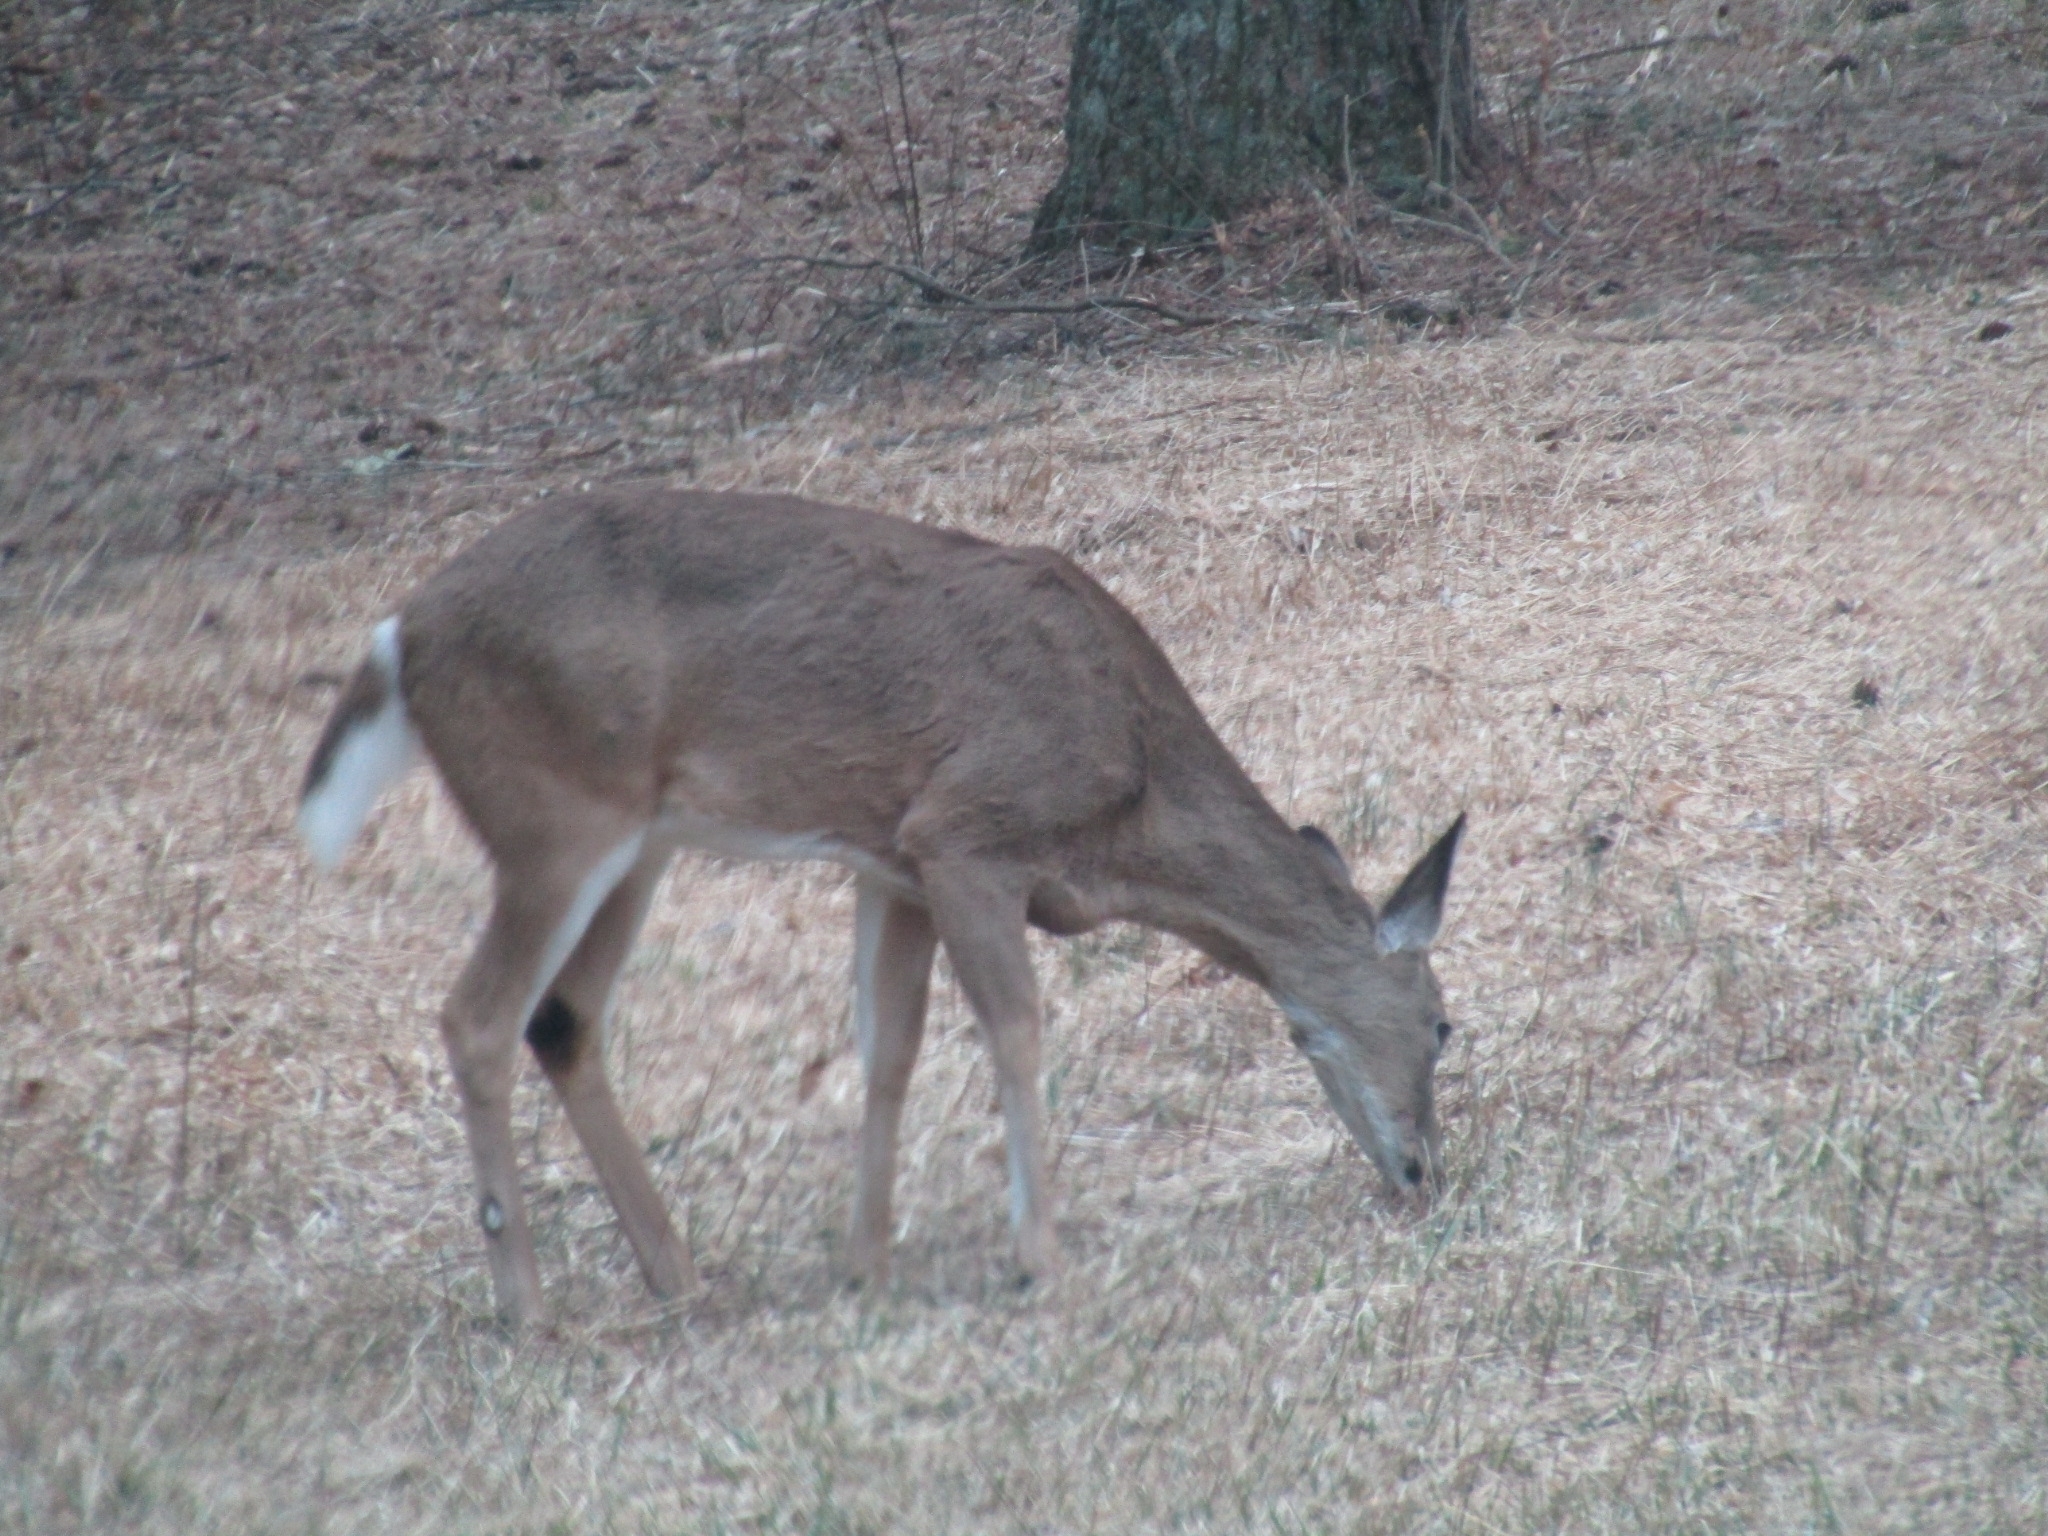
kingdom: Animalia
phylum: Chordata
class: Mammalia
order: Artiodactyla
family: Cervidae
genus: Odocoileus
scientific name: Odocoileus virginianus
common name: White-tailed deer
